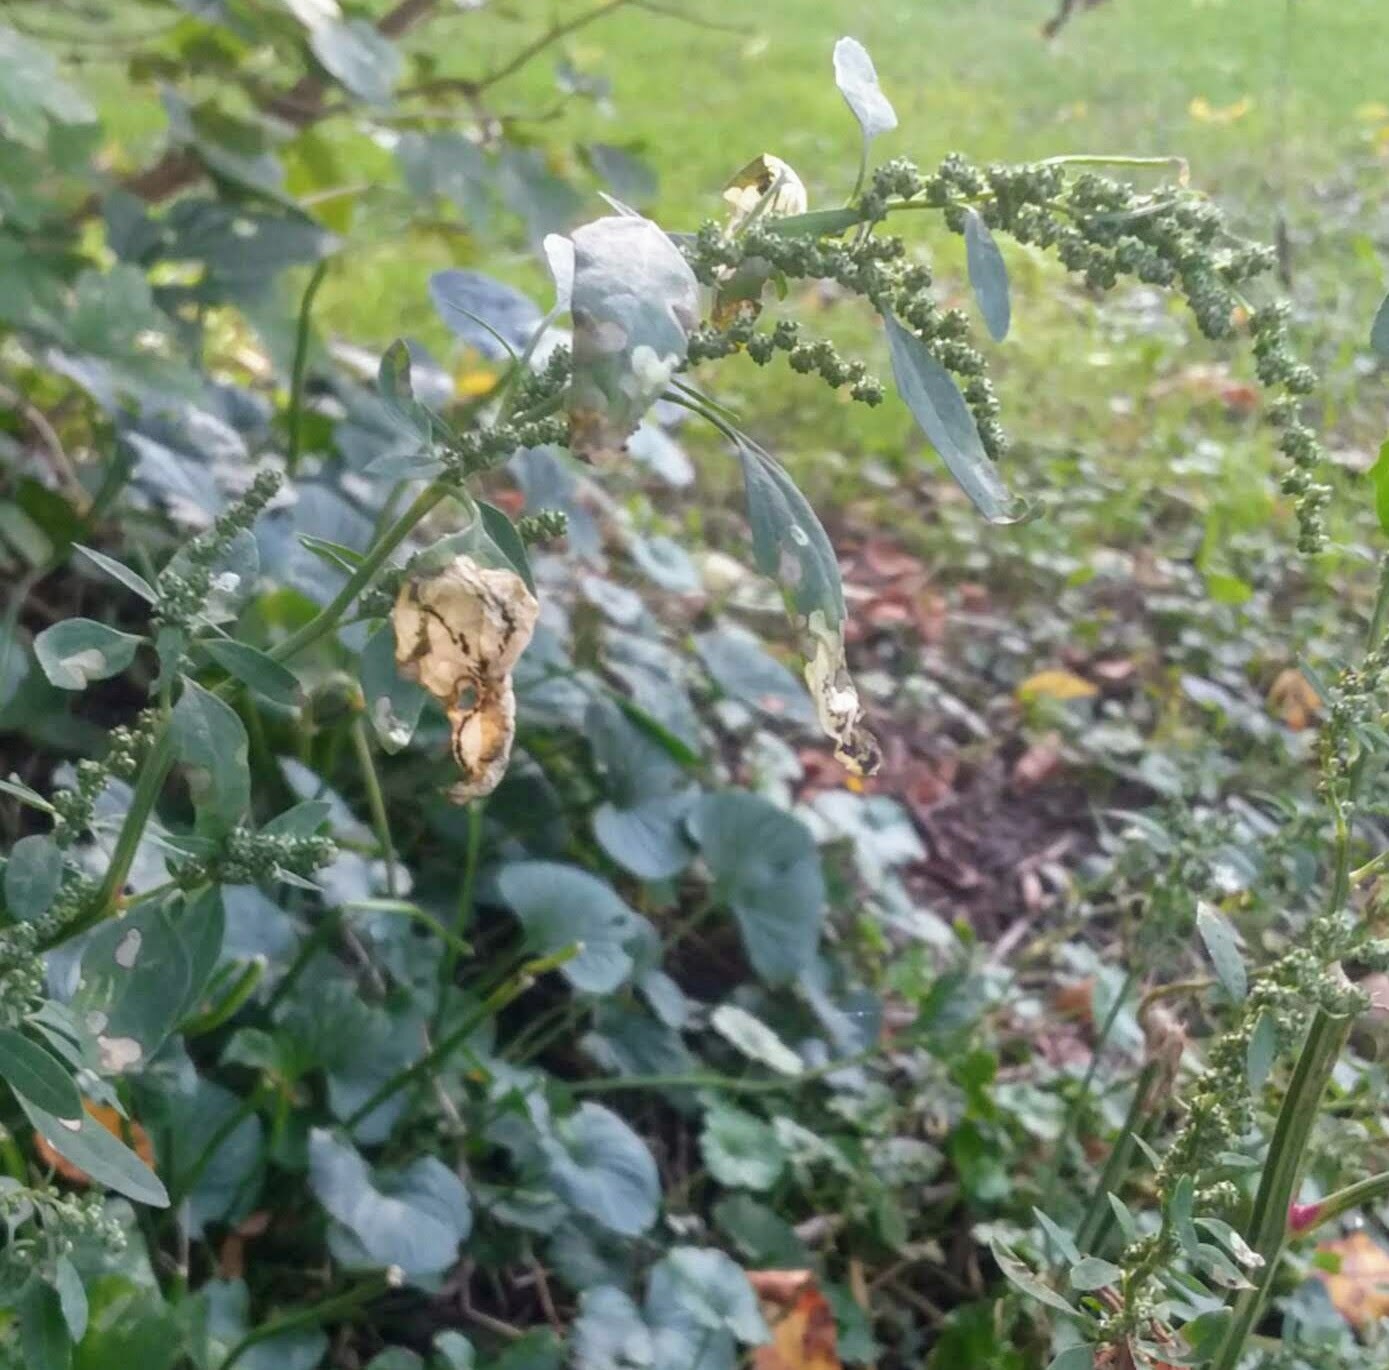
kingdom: Plantae
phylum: Tracheophyta
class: Magnoliopsida
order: Sapindales
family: Anacardiaceae
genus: Rhus
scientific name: Rhus typhina
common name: Staghorn sumac
